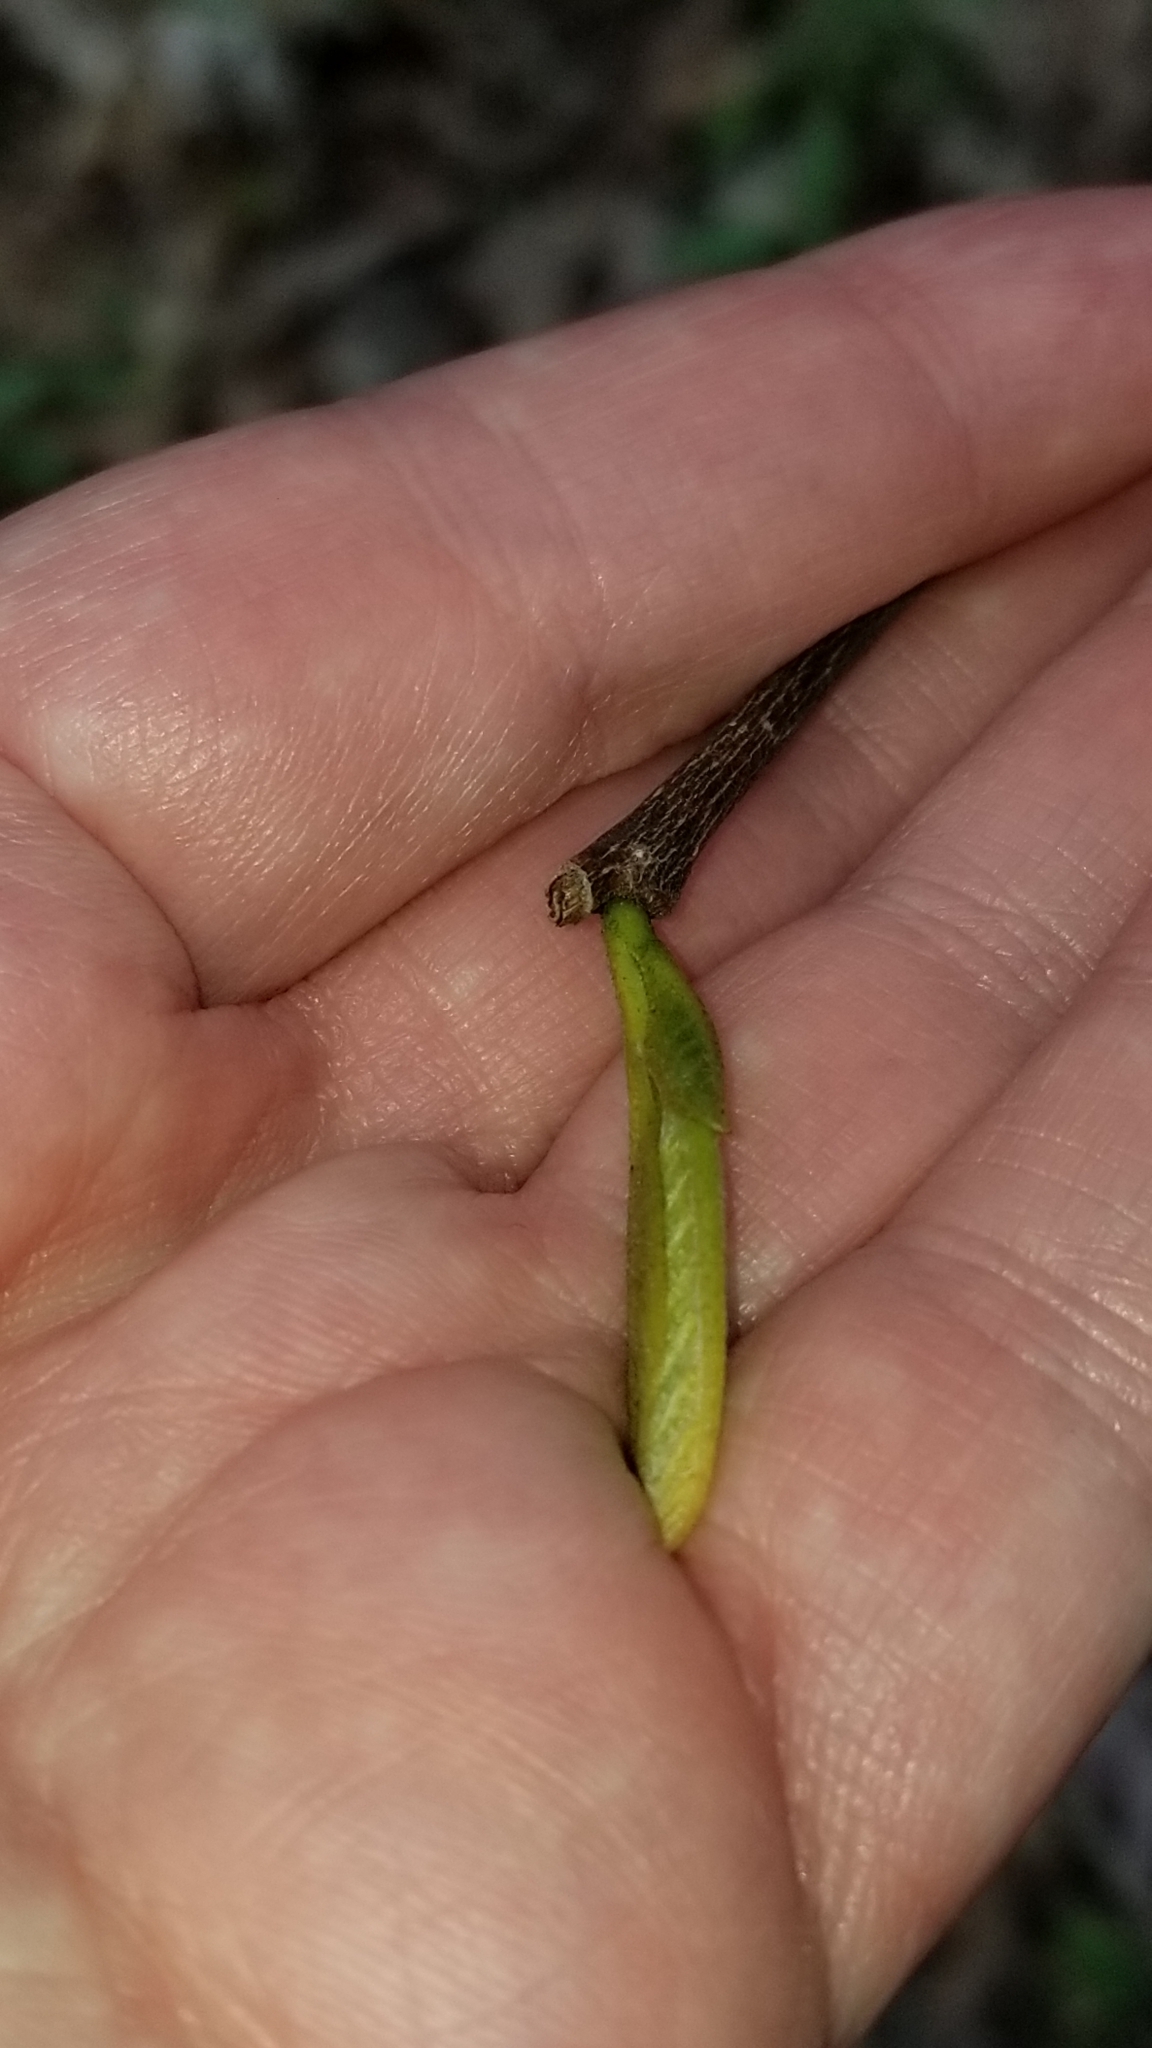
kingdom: Plantae
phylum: Tracheophyta
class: Magnoliopsida
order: Magnoliales
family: Annonaceae
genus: Asimina
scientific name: Asimina triloba
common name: Dog-banana
